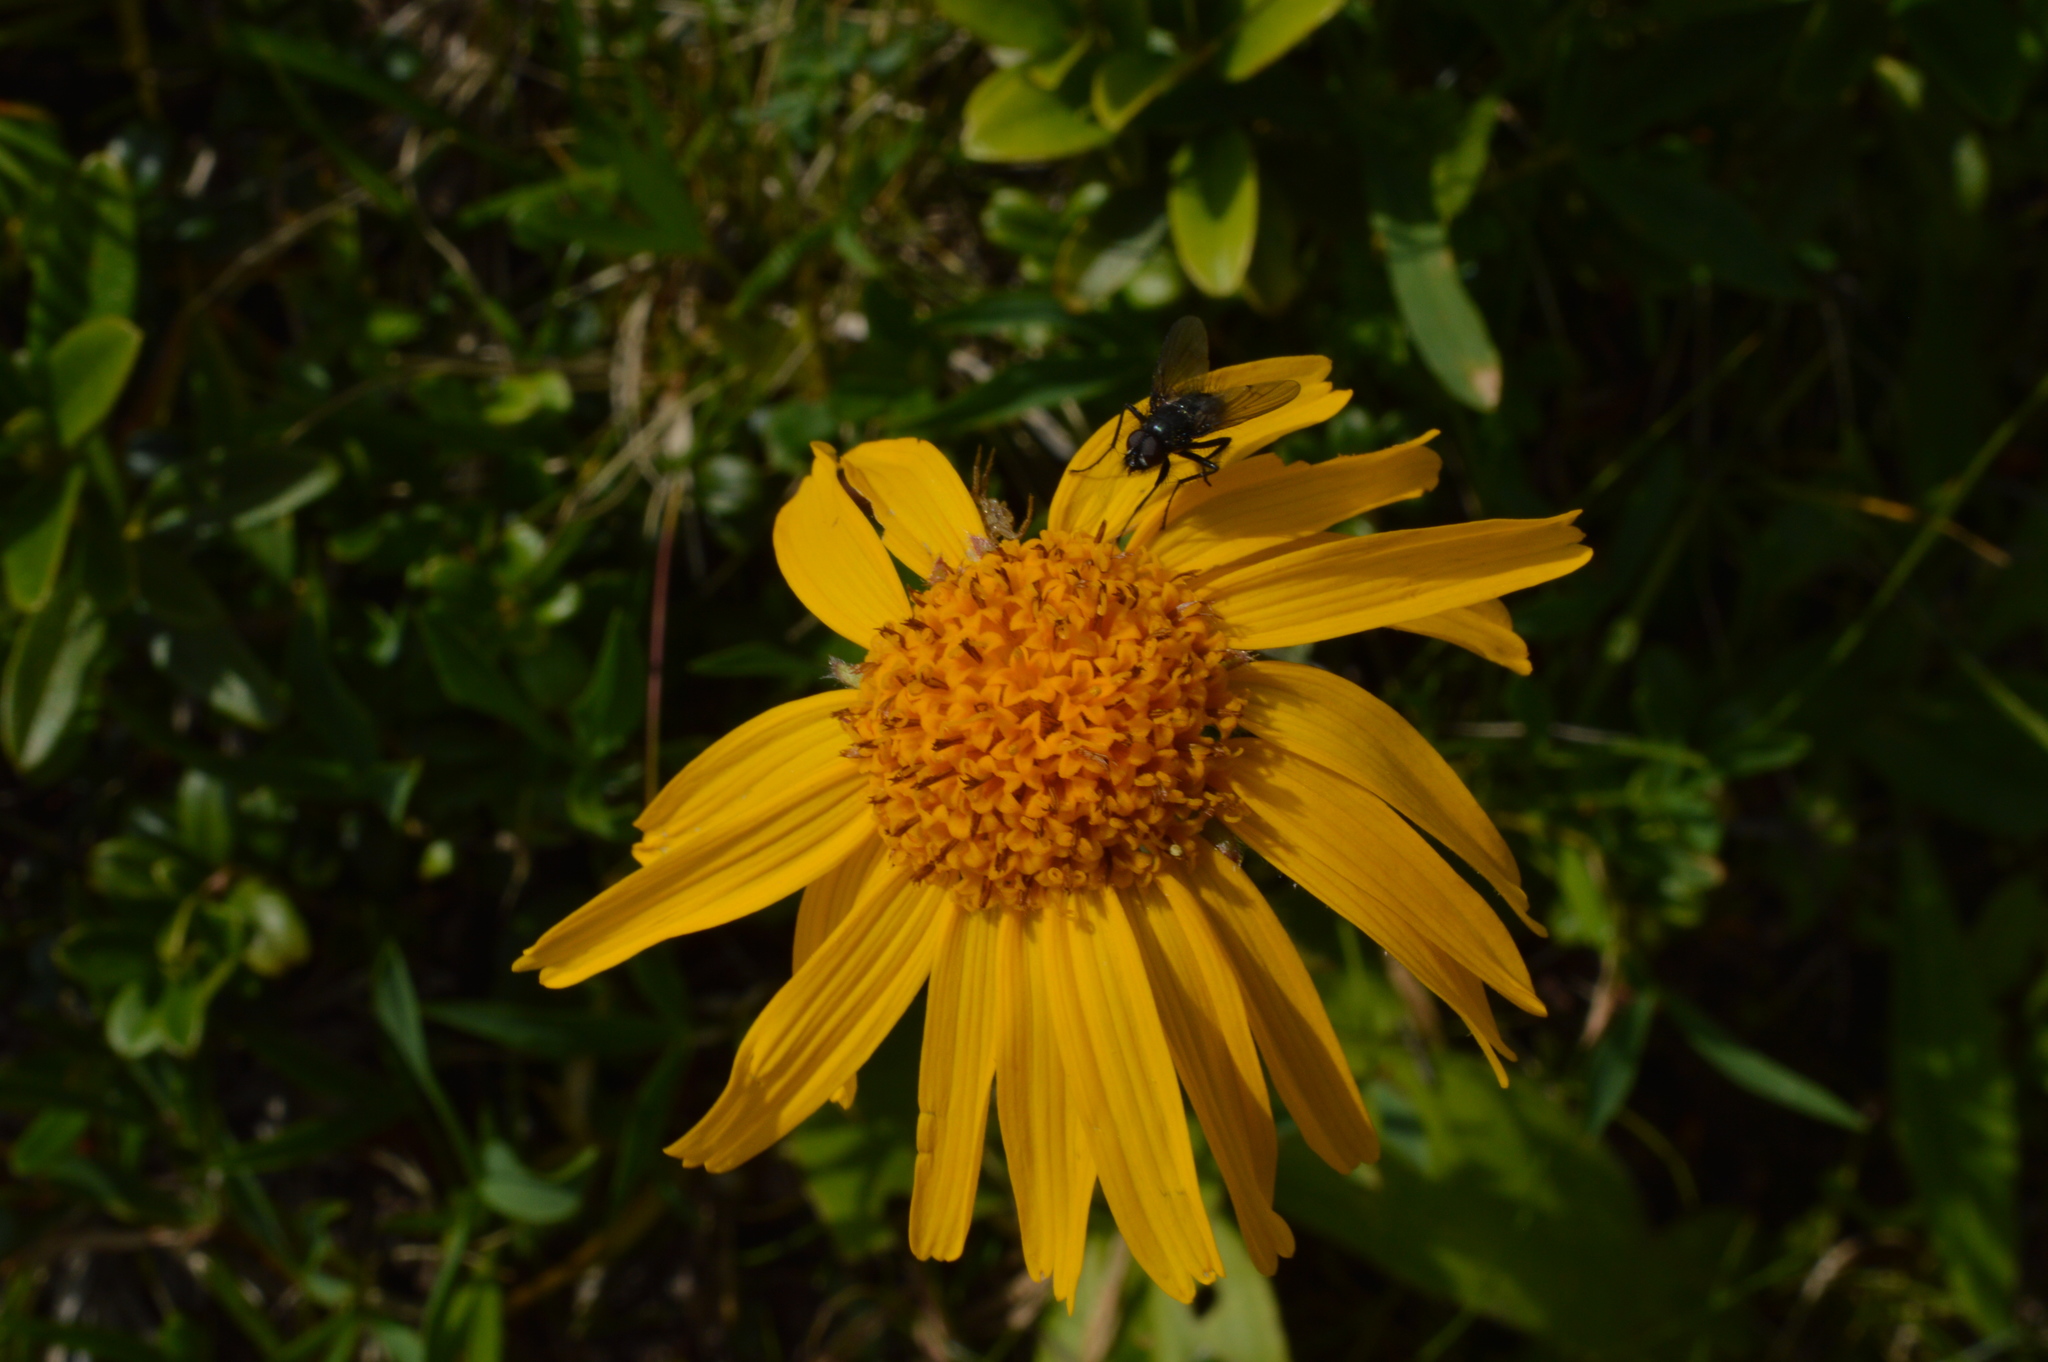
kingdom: Plantae
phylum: Tracheophyta
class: Magnoliopsida
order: Asterales
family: Asteraceae
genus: Arnica
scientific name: Arnica montana
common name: Leopard's bane
